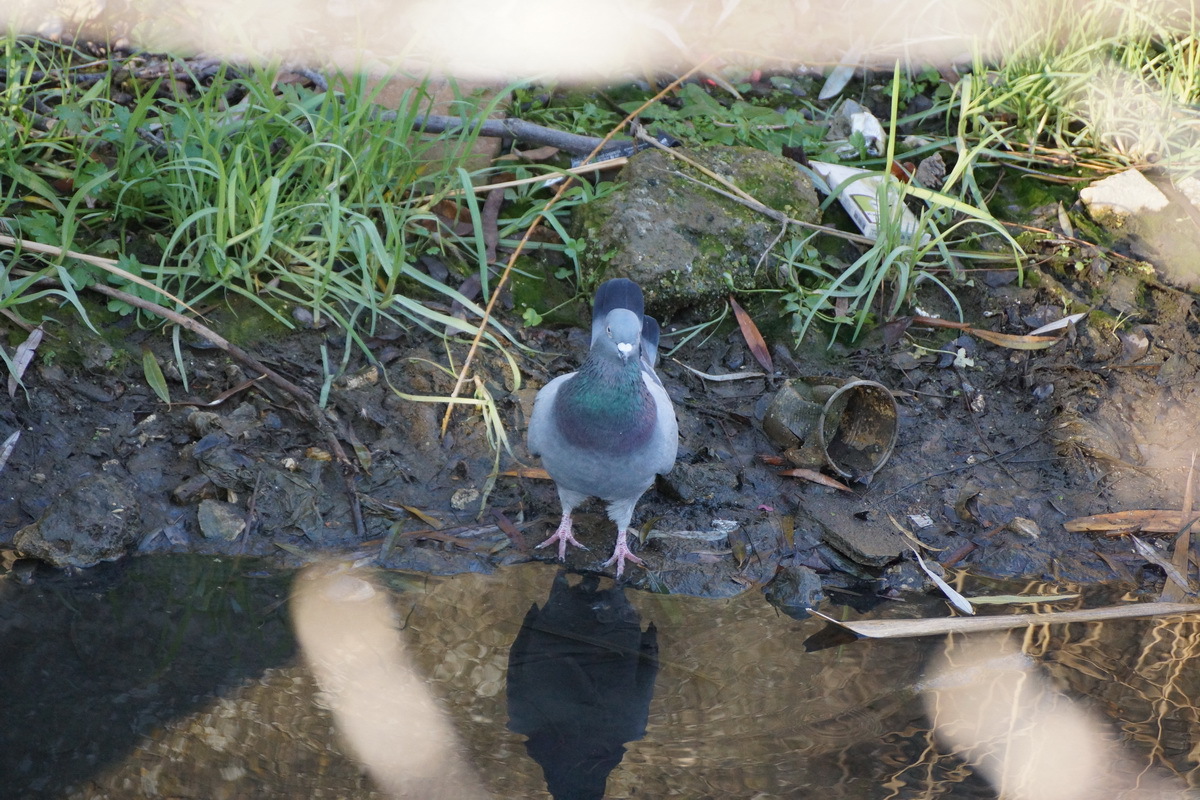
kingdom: Animalia
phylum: Chordata
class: Aves
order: Columbiformes
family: Columbidae
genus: Columba
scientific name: Columba livia
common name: Rock pigeon
